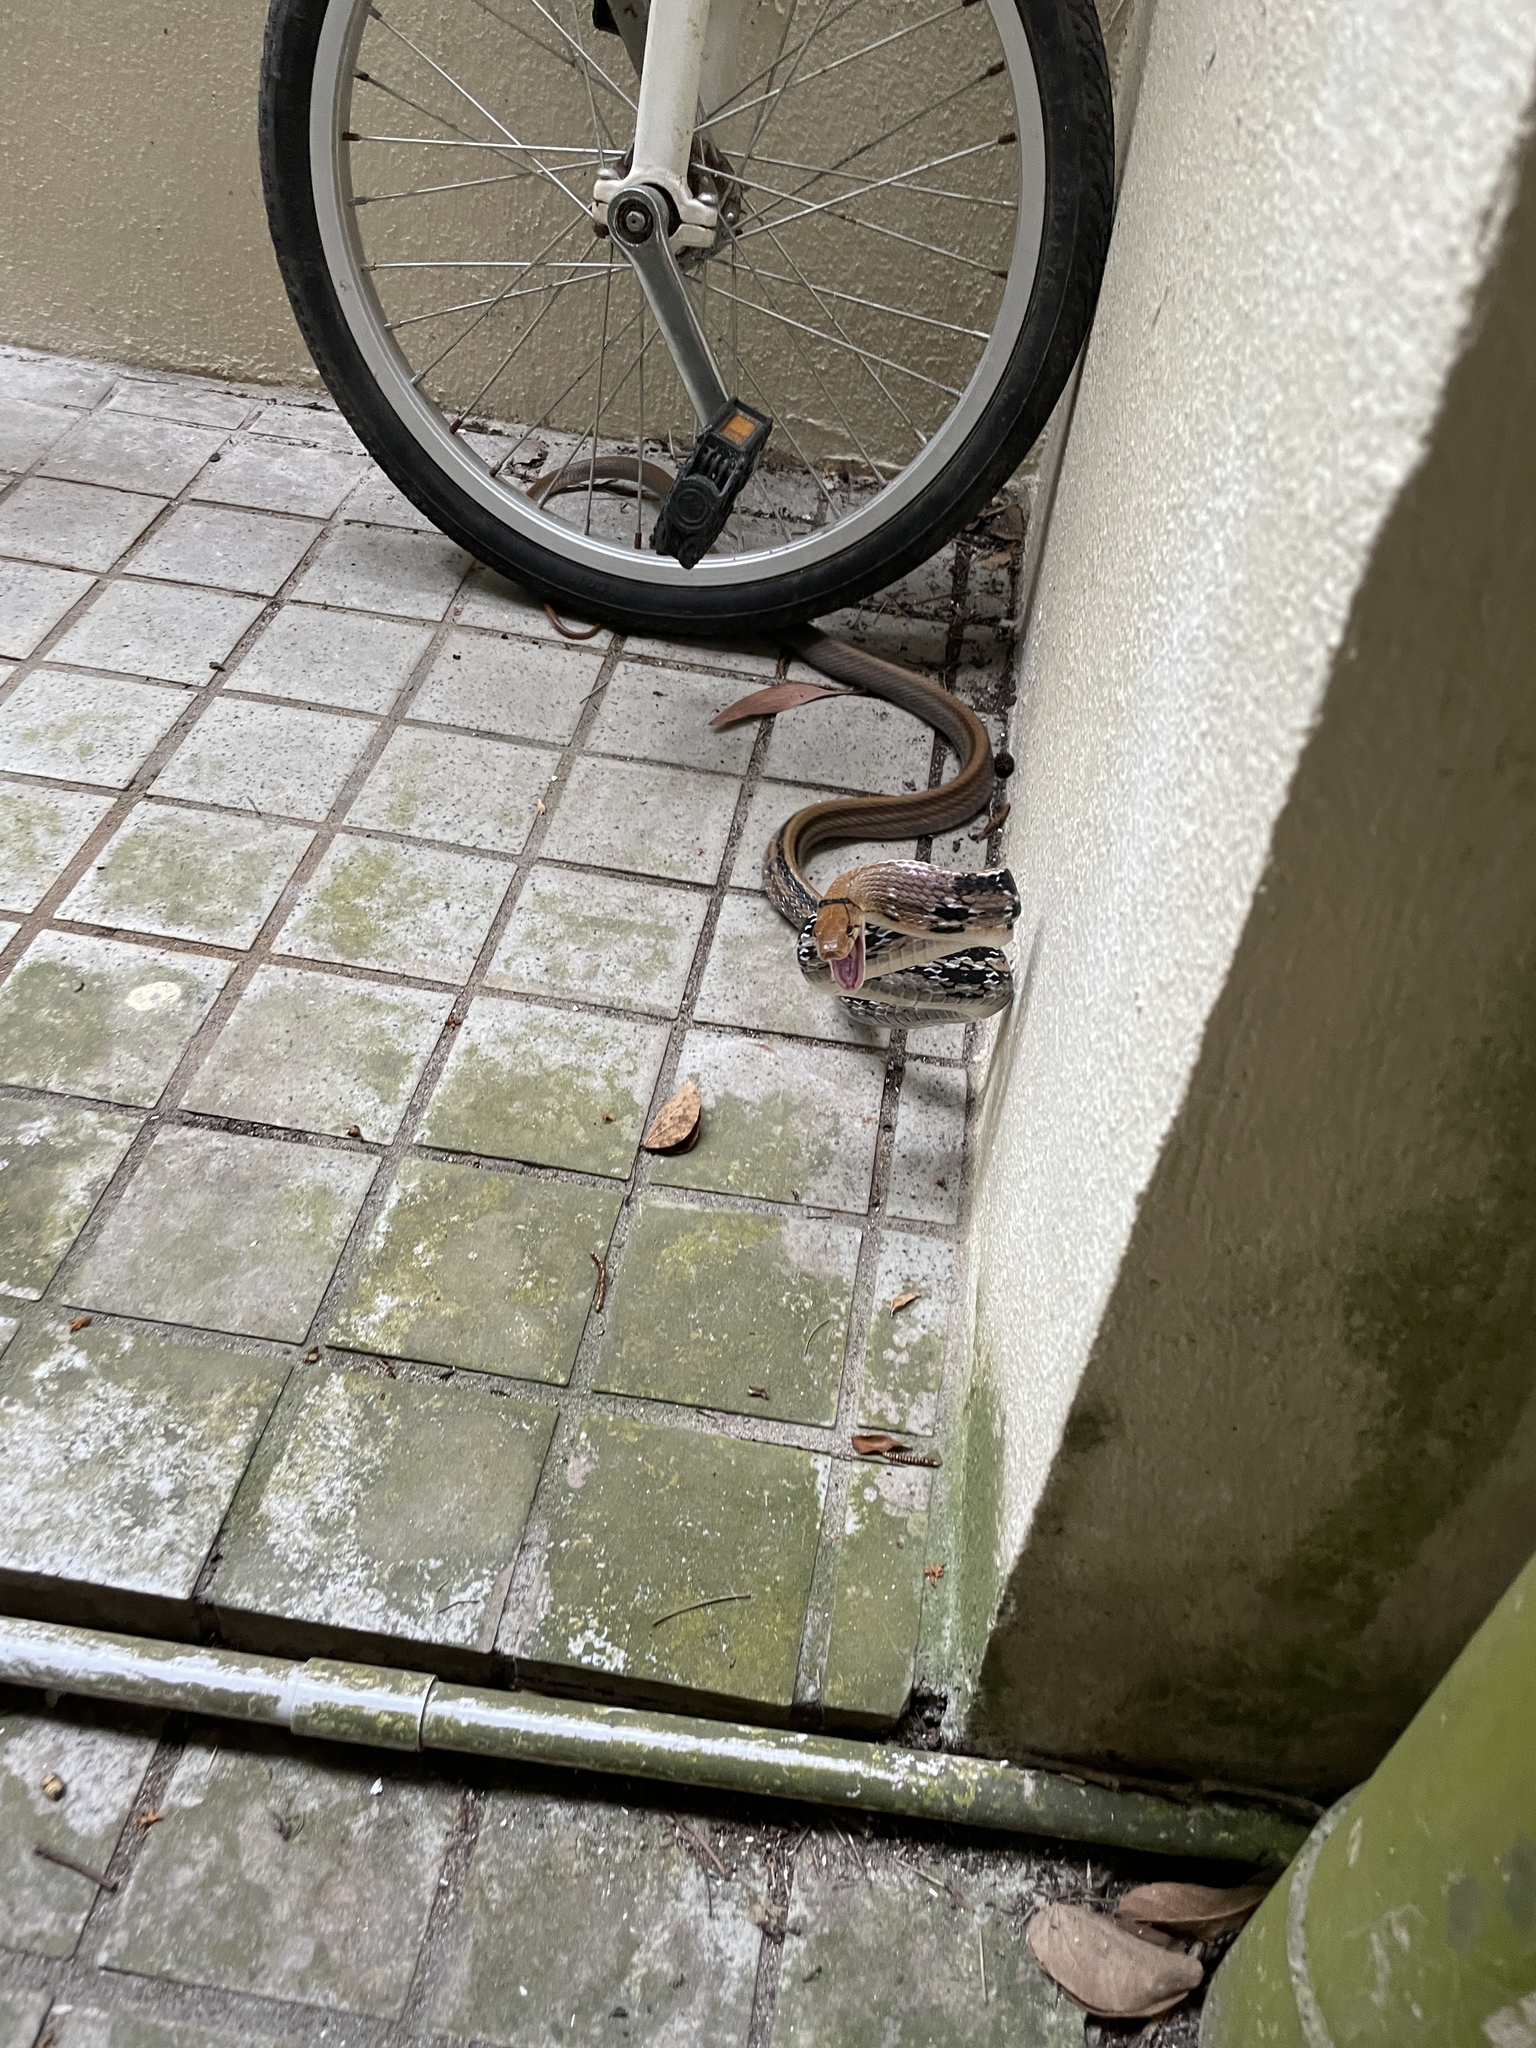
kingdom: Animalia
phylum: Chordata
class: Squamata
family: Colubridae
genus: Coelognathus
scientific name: Coelognathus radiatus
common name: Copperhead rat snake
